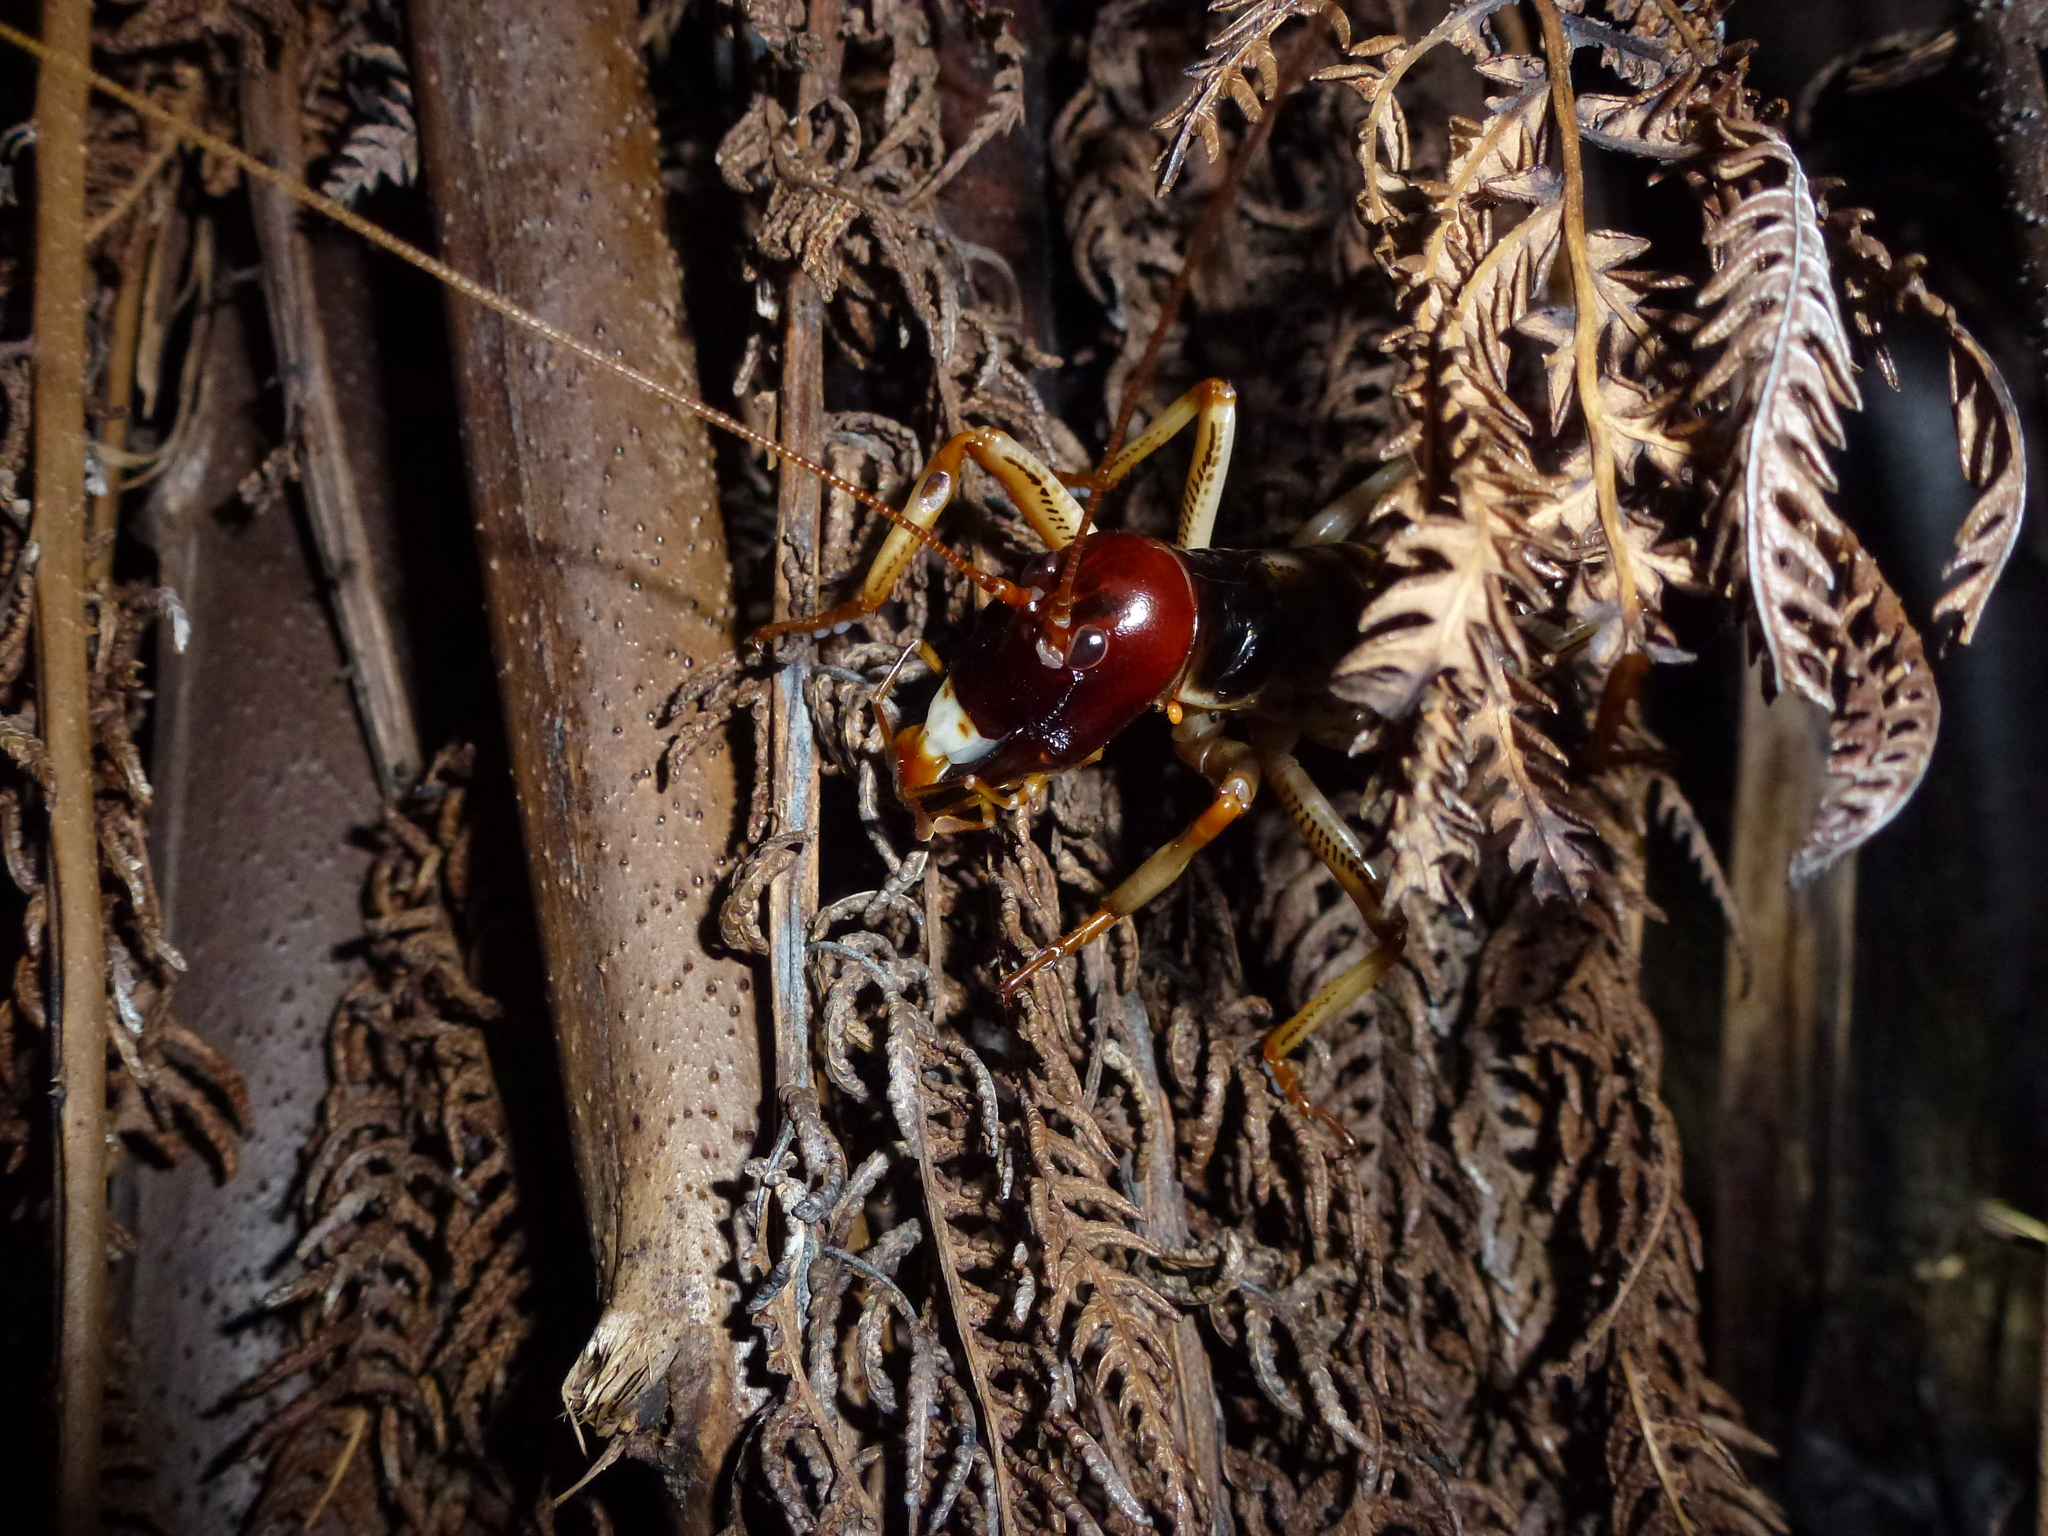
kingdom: Animalia
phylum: Arthropoda
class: Insecta
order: Orthoptera
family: Anostostomatidae
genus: Hemideina
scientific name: Hemideina crassidens
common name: Wellington tree weta
